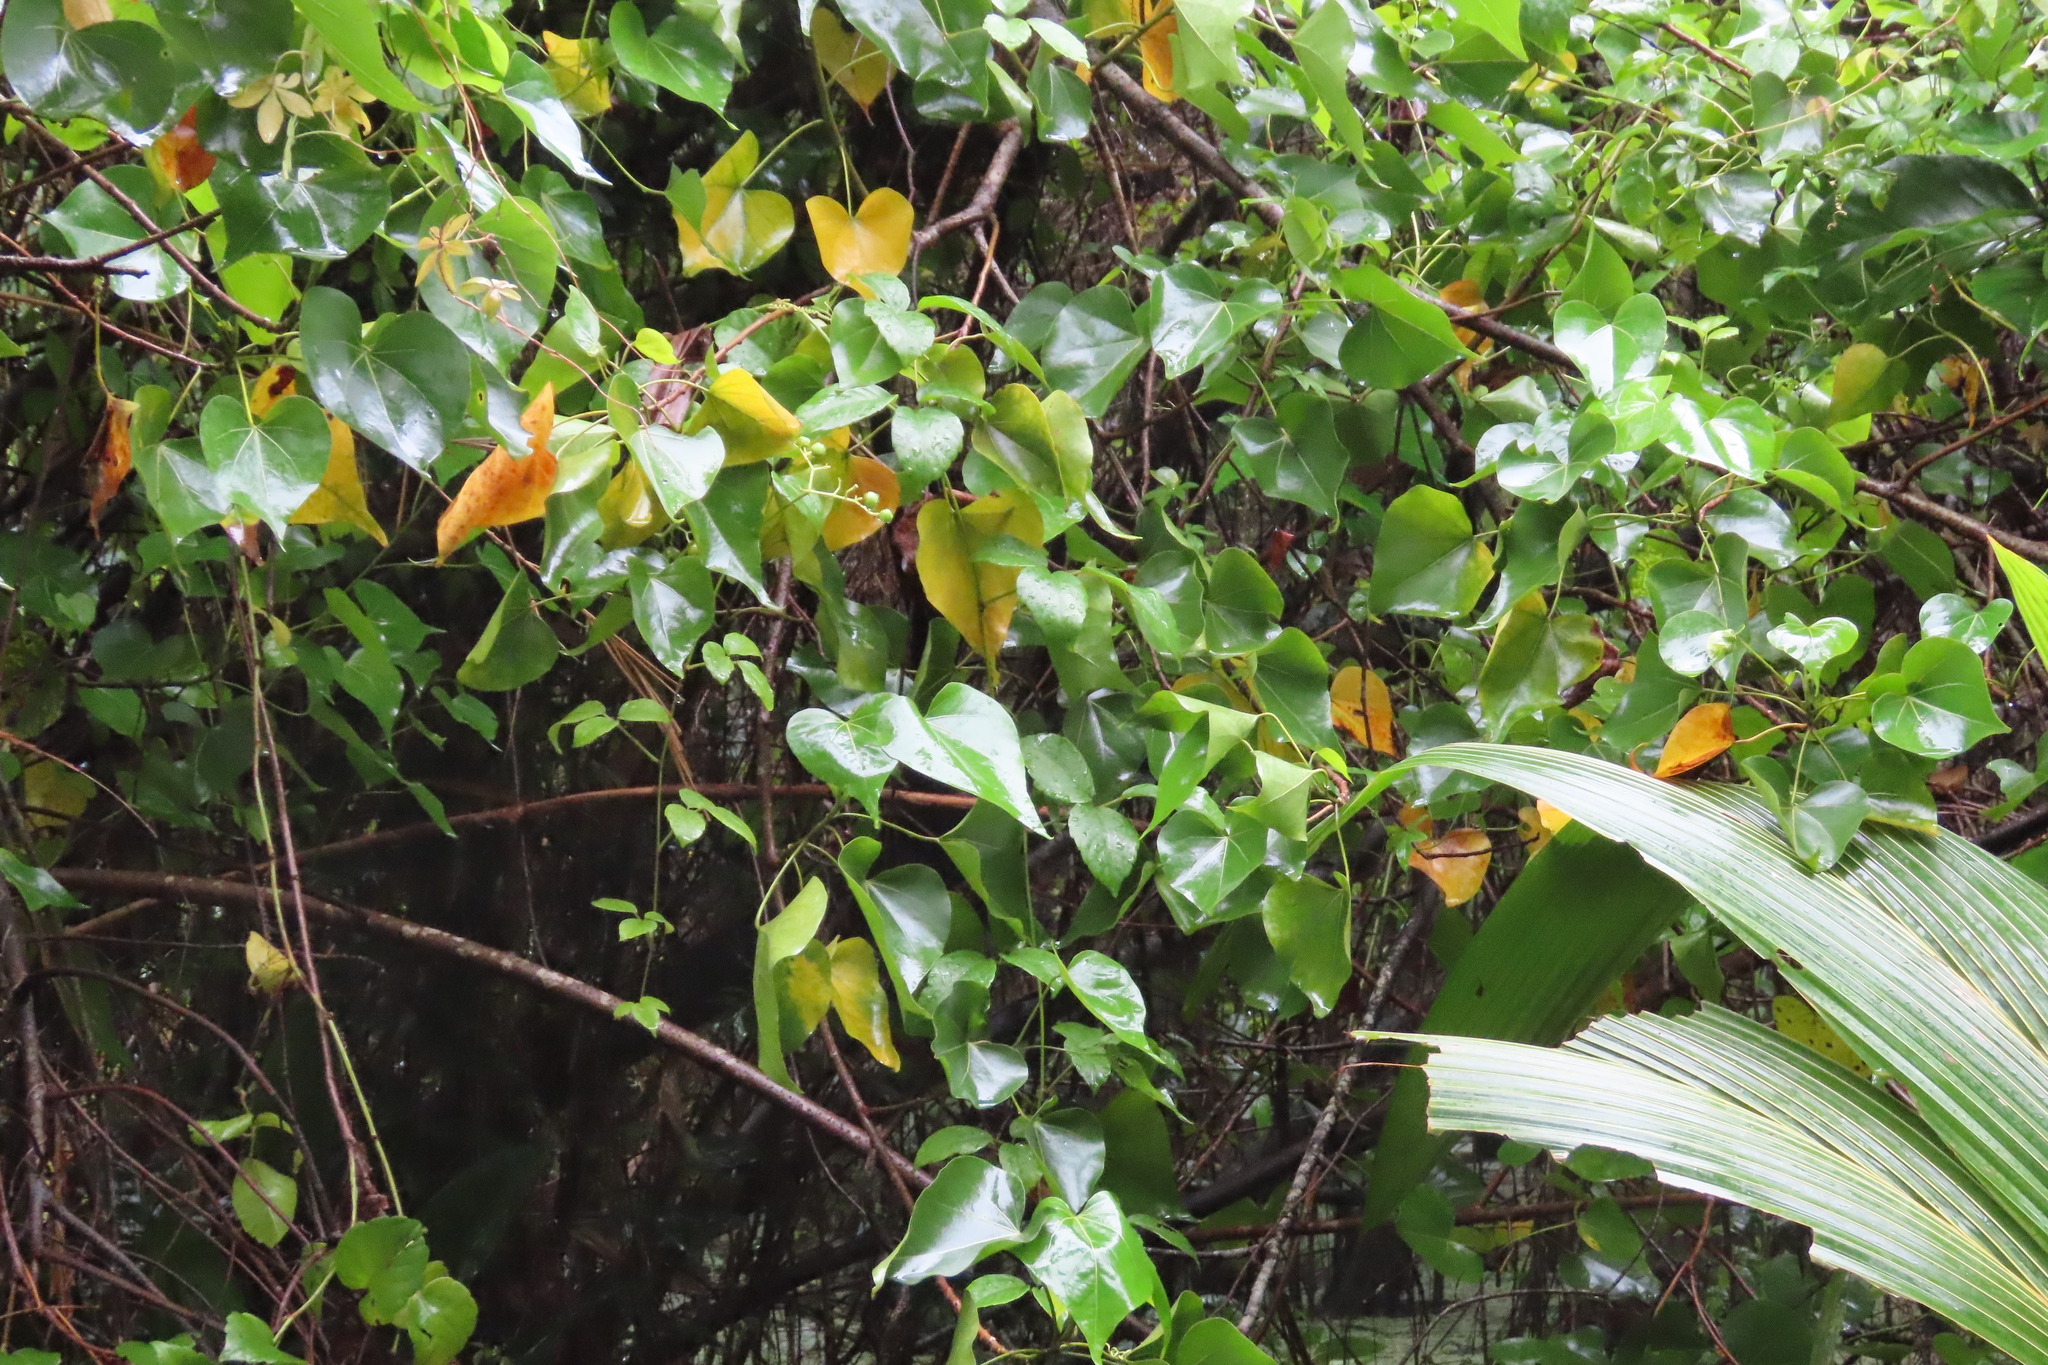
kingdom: Plantae
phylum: Tracheophyta
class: Magnoliopsida
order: Malvales
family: Malvaceae
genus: Thespesia
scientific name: Thespesia populnea
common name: Seaside mahoe
